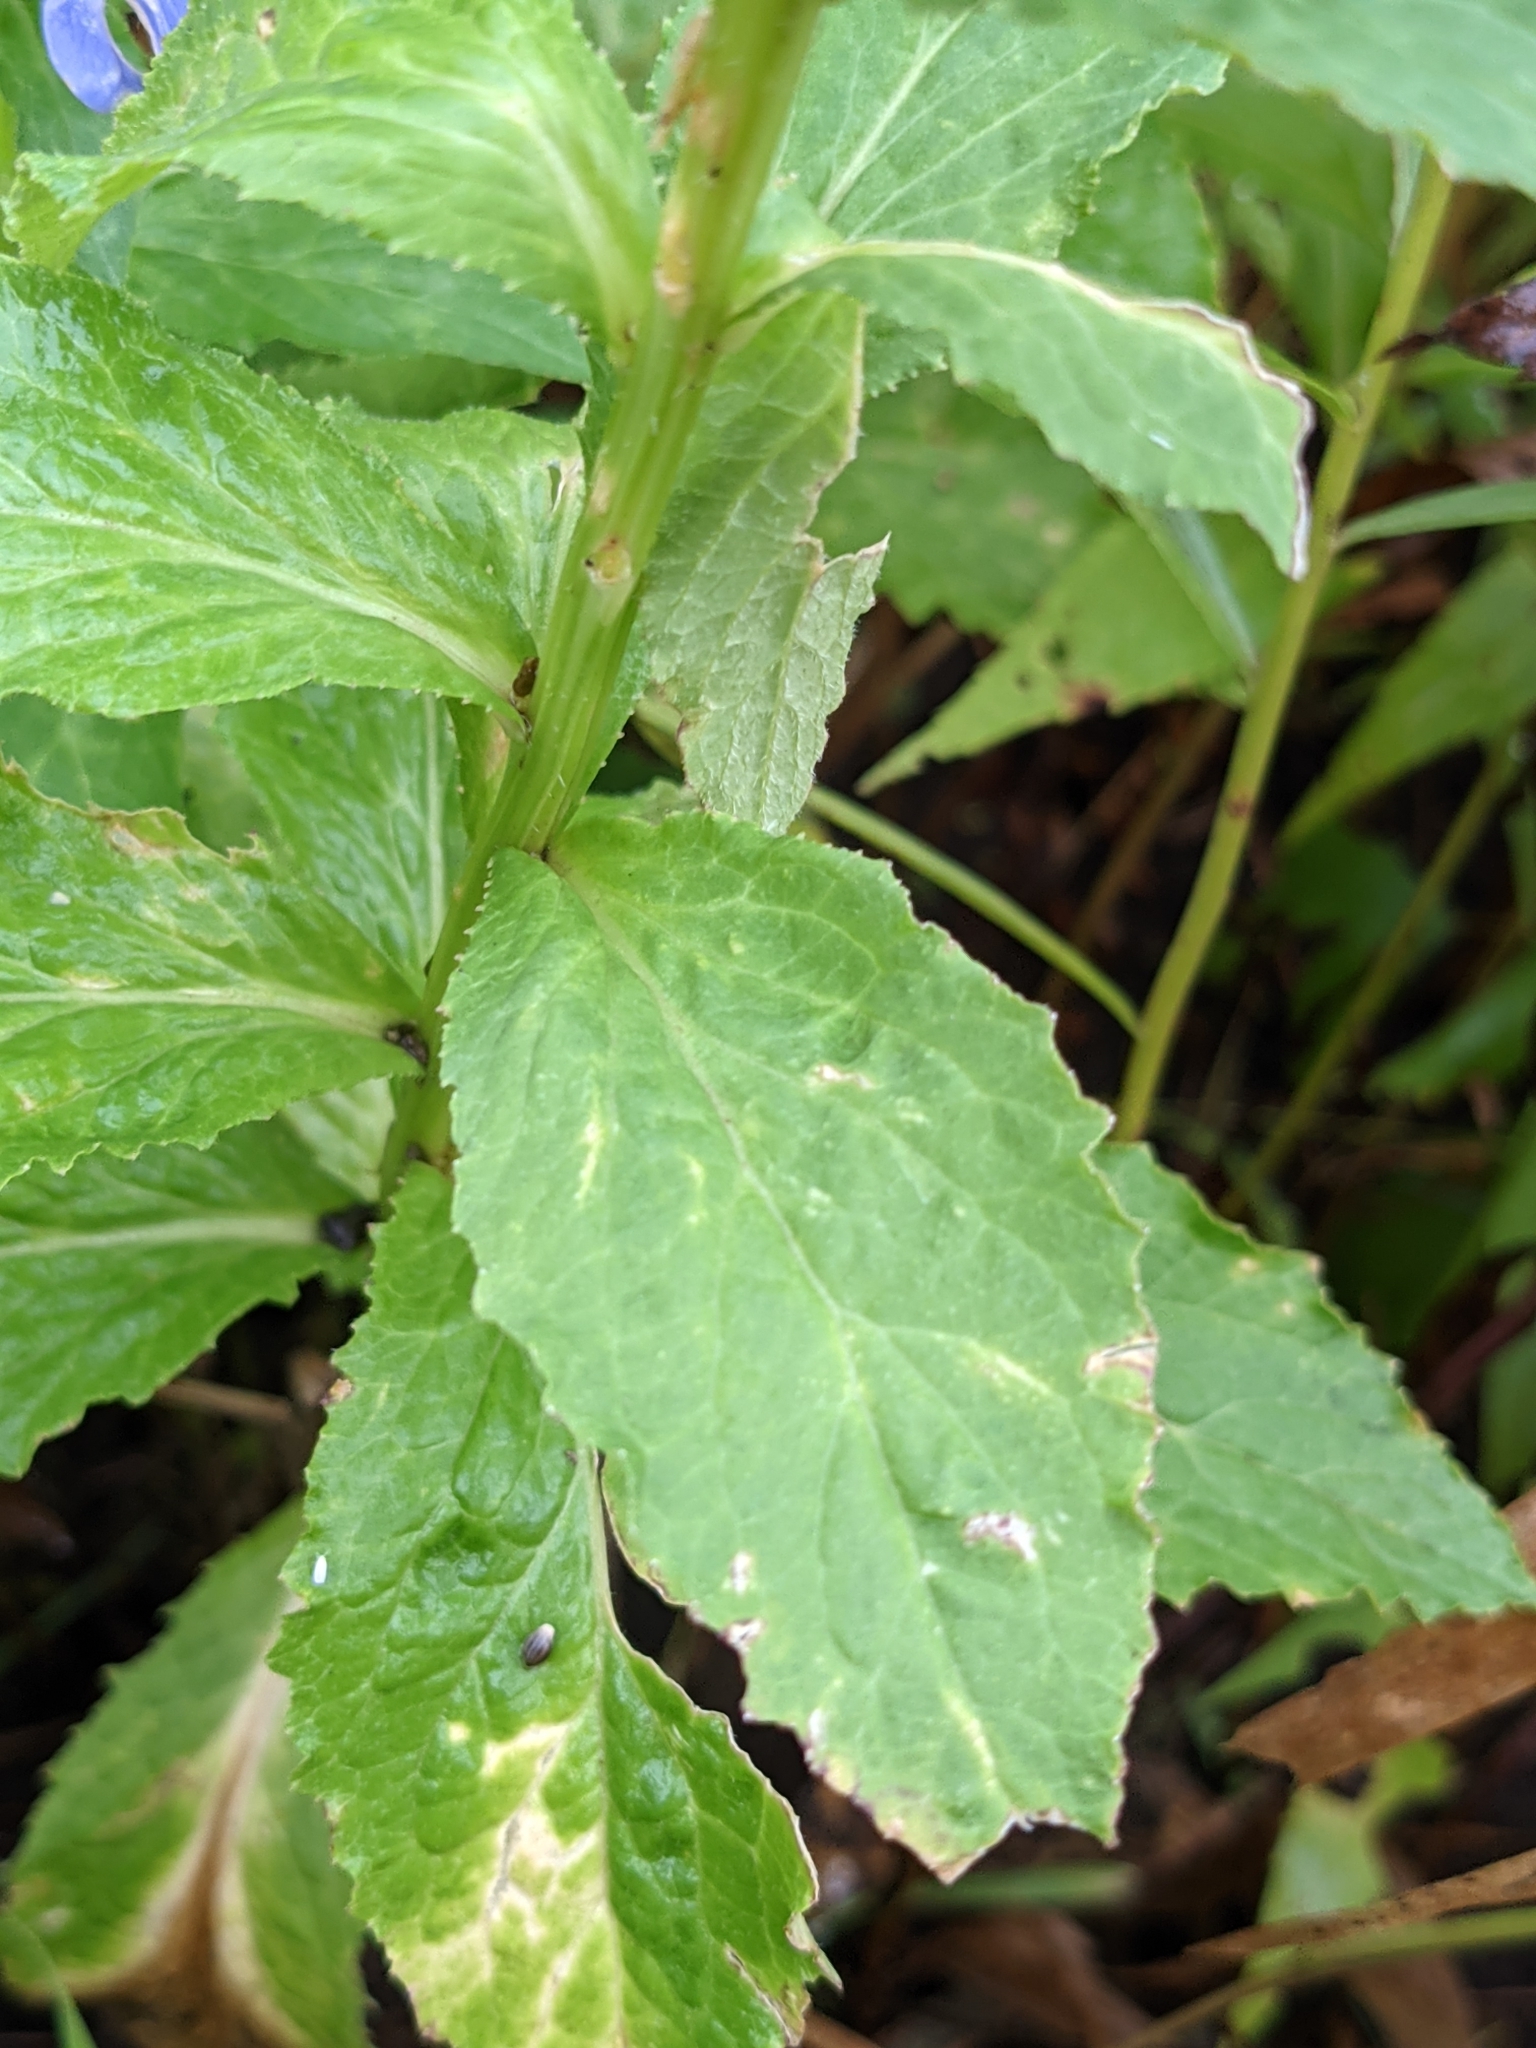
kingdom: Plantae
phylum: Tracheophyta
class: Magnoliopsida
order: Asterales
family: Campanulaceae
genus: Lobelia
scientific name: Lobelia siphilitica
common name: Great lobelia
